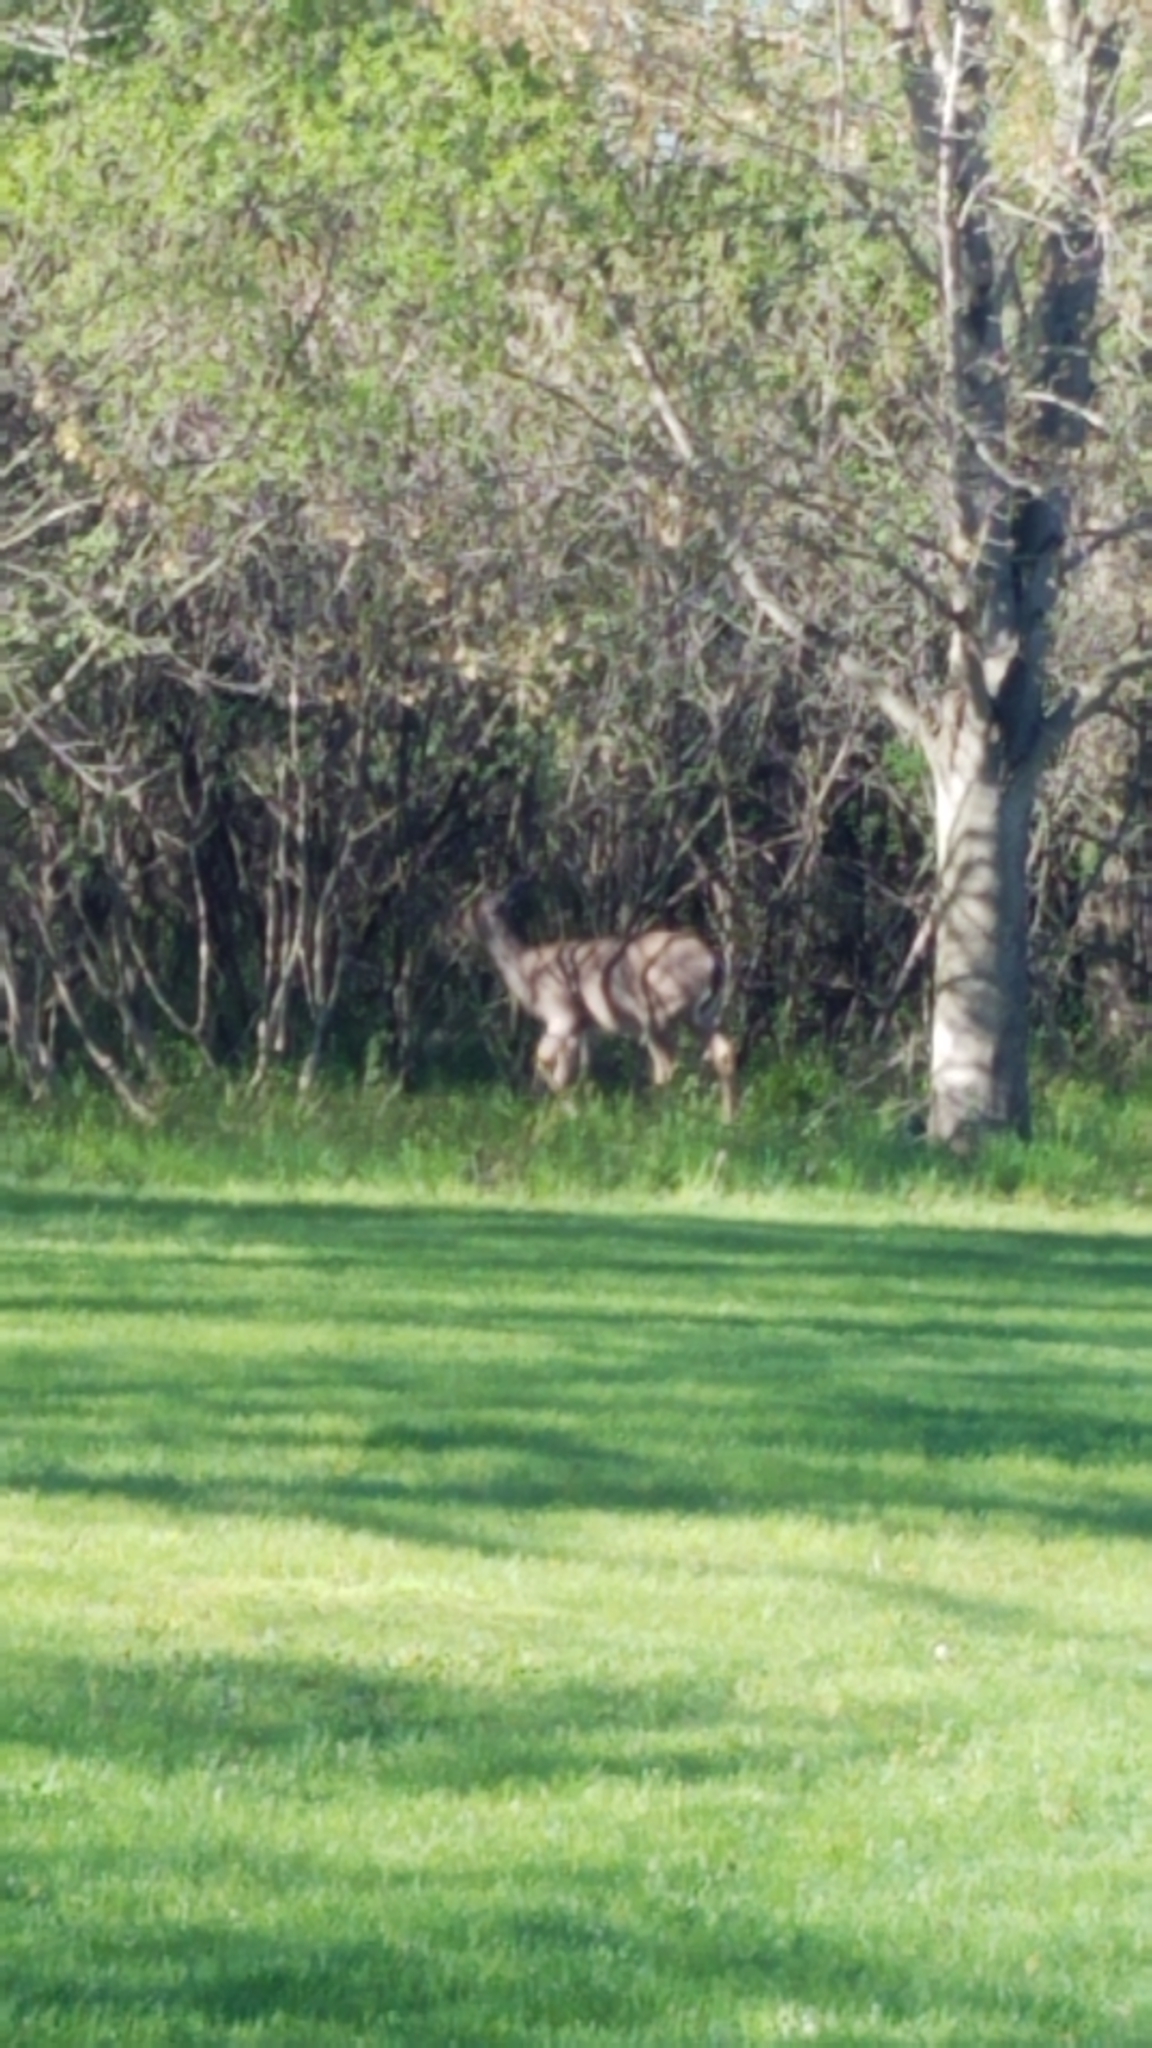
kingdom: Animalia
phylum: Chordata
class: Mammalia
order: Artiodactyla
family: Cervidae
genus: Odocoileus
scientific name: Odocoileus virginianus
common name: White-tailed deer
